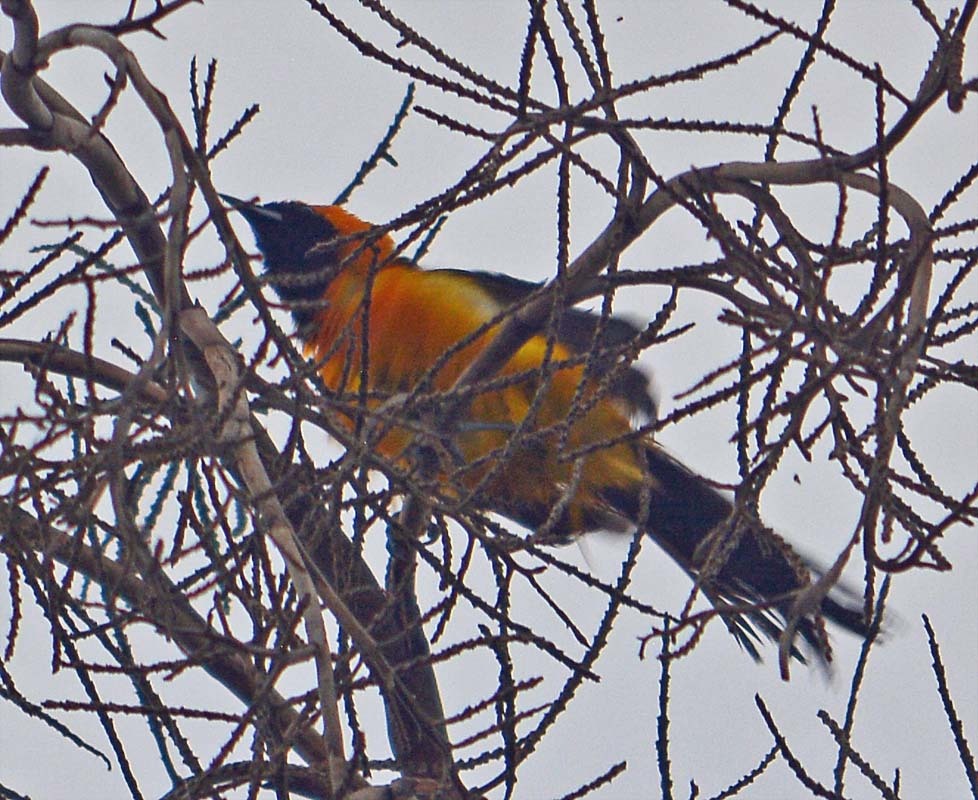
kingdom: Animalia
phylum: Chordata
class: Aves
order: Passeriformes
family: Icteridae
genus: Icterus
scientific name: Icterus cucullatus
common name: Hooded oriole
